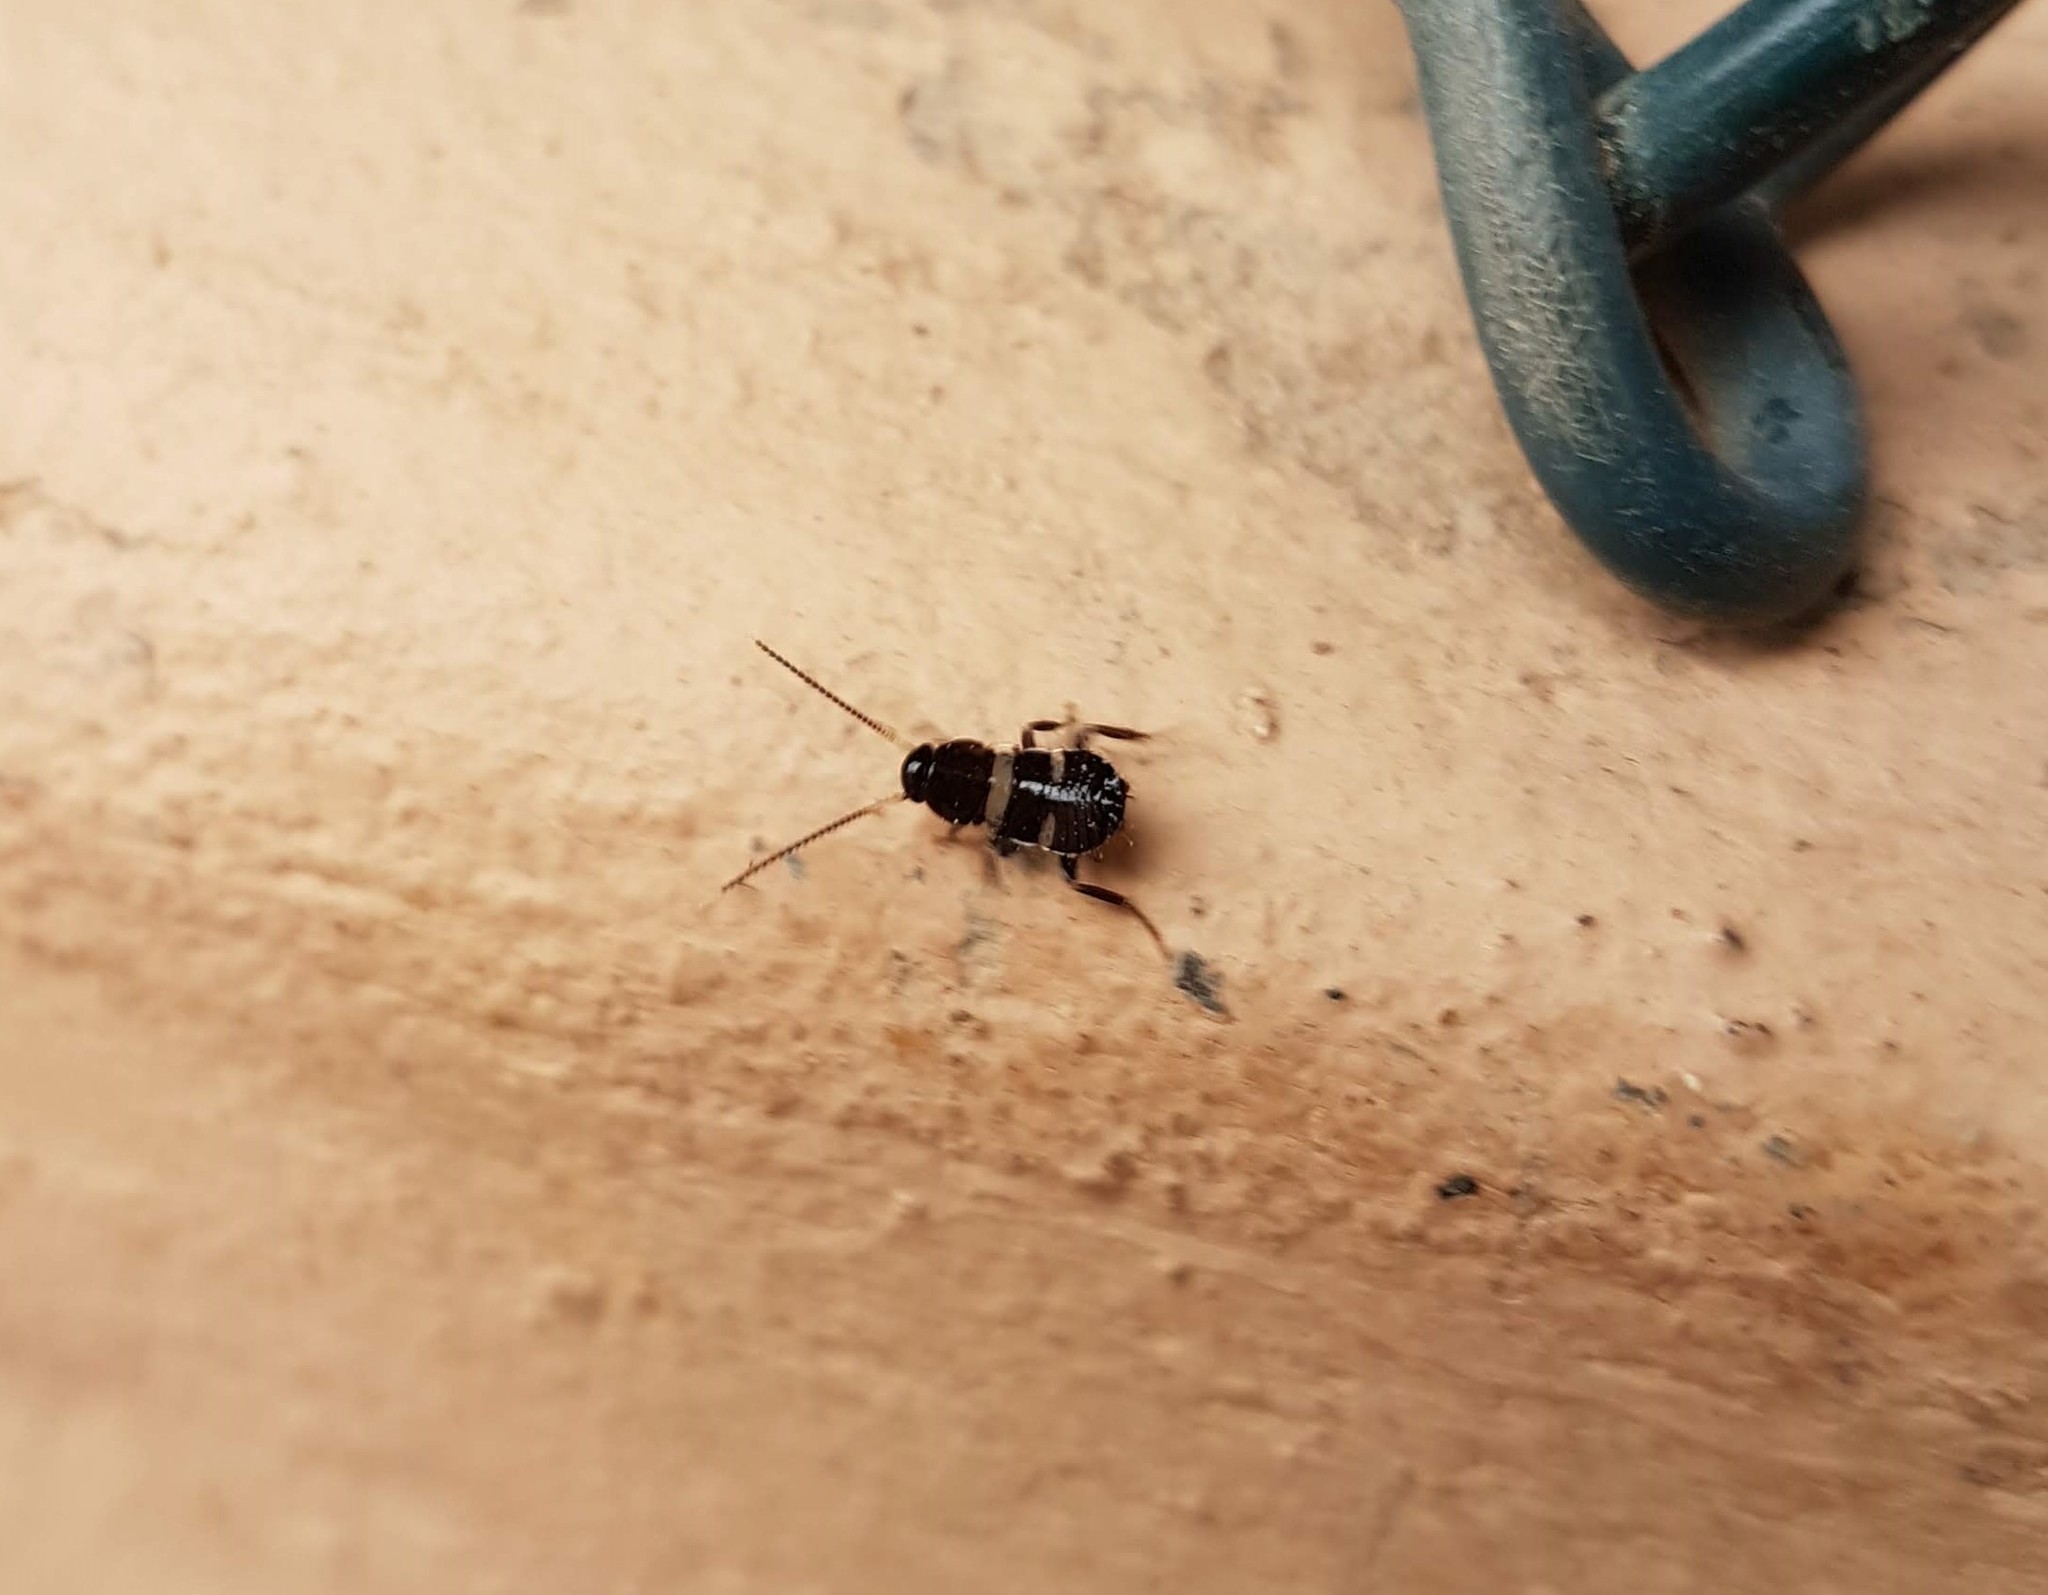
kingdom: Animalia
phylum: Arthropoda
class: Insecta
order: Blattodea
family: Blattidae
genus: Periplaneta
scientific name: Periplaneta australasiae
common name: Australian cockroach
